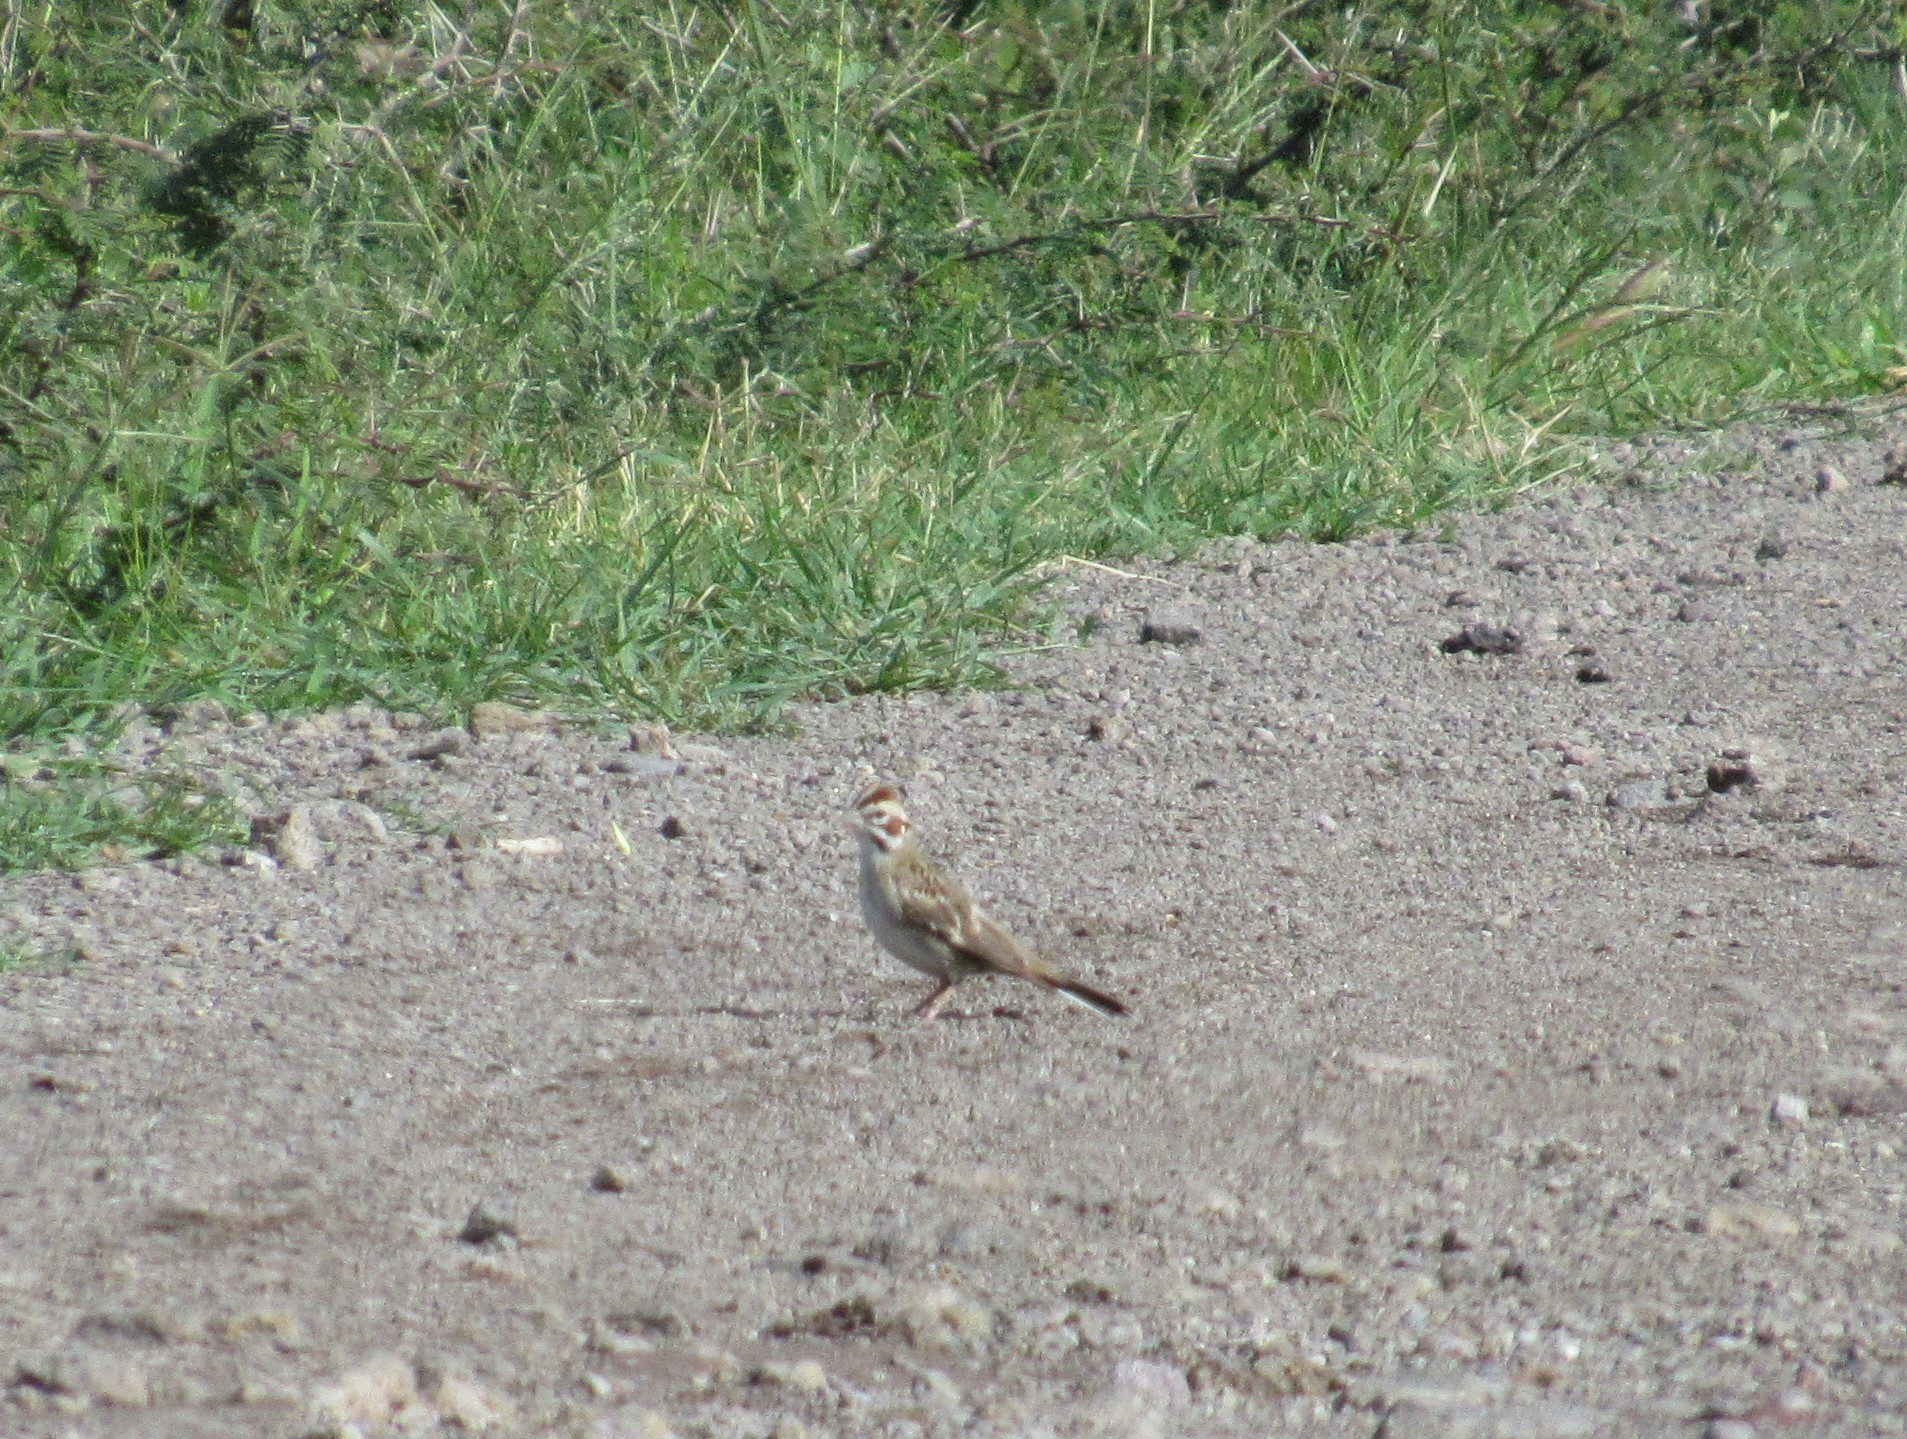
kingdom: Animalia
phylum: Chordata
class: Aves
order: Passeriformes
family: Passerellidae
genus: Chondestes
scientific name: Chondestes grammacus
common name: Lark sparrow
